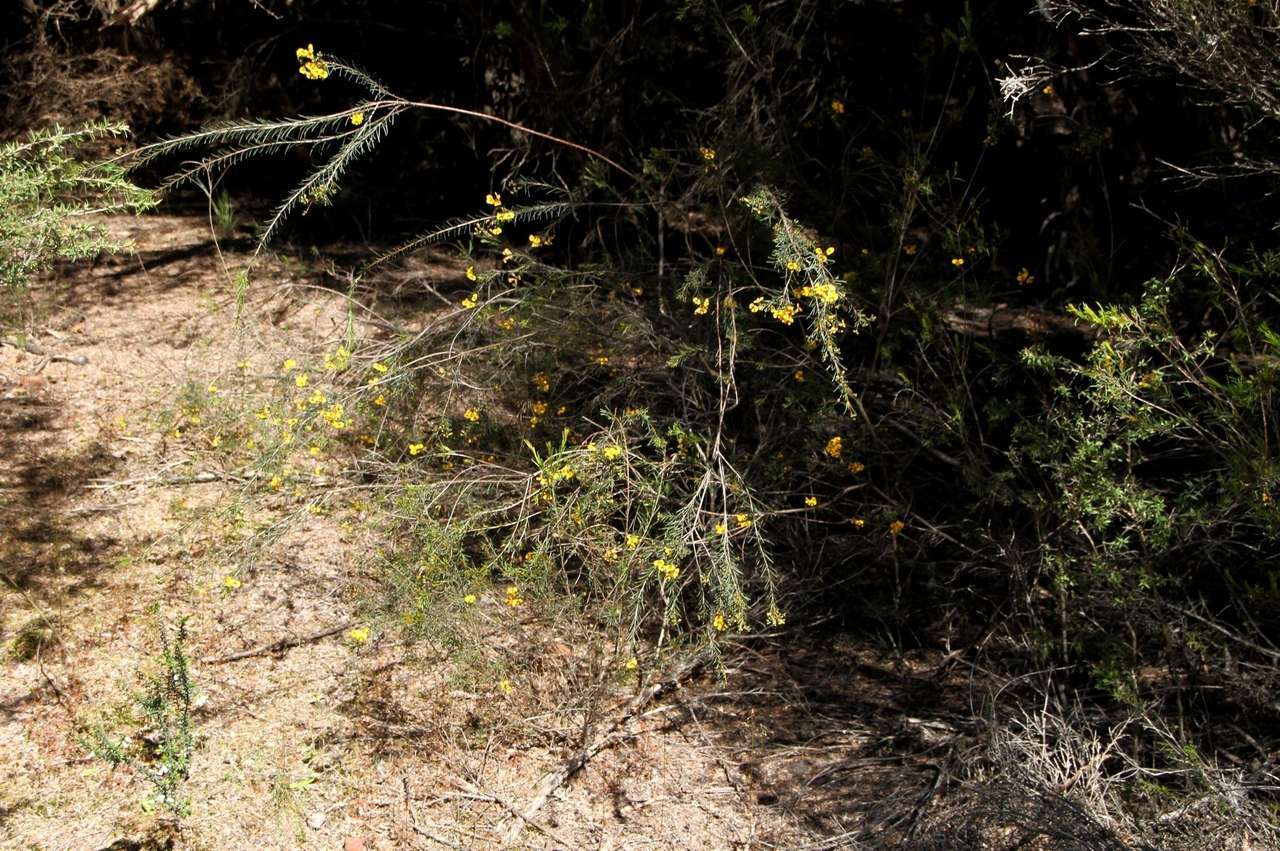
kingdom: Plantae
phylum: Tracheophyta
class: Magnoliopsida
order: Fabales
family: Fabaceae
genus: Dillwynia
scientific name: Dillwynia glaberrima
